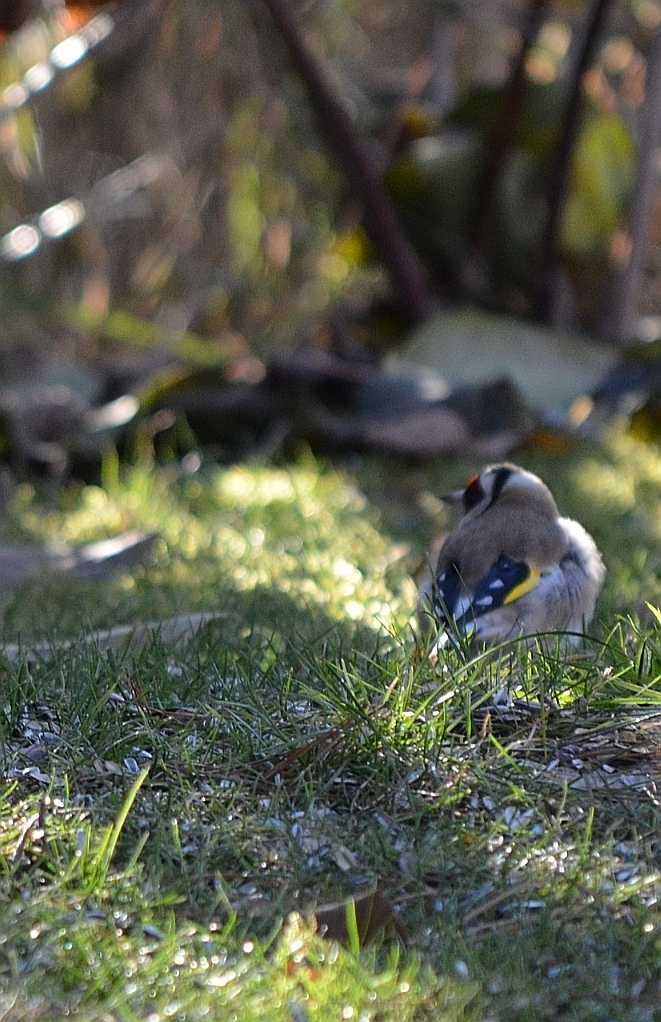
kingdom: Animalia
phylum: Chordata
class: Aves
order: Passeriformes
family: Fringillidae
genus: Carduelis
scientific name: Carduelis carduelis
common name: European goldfinch
